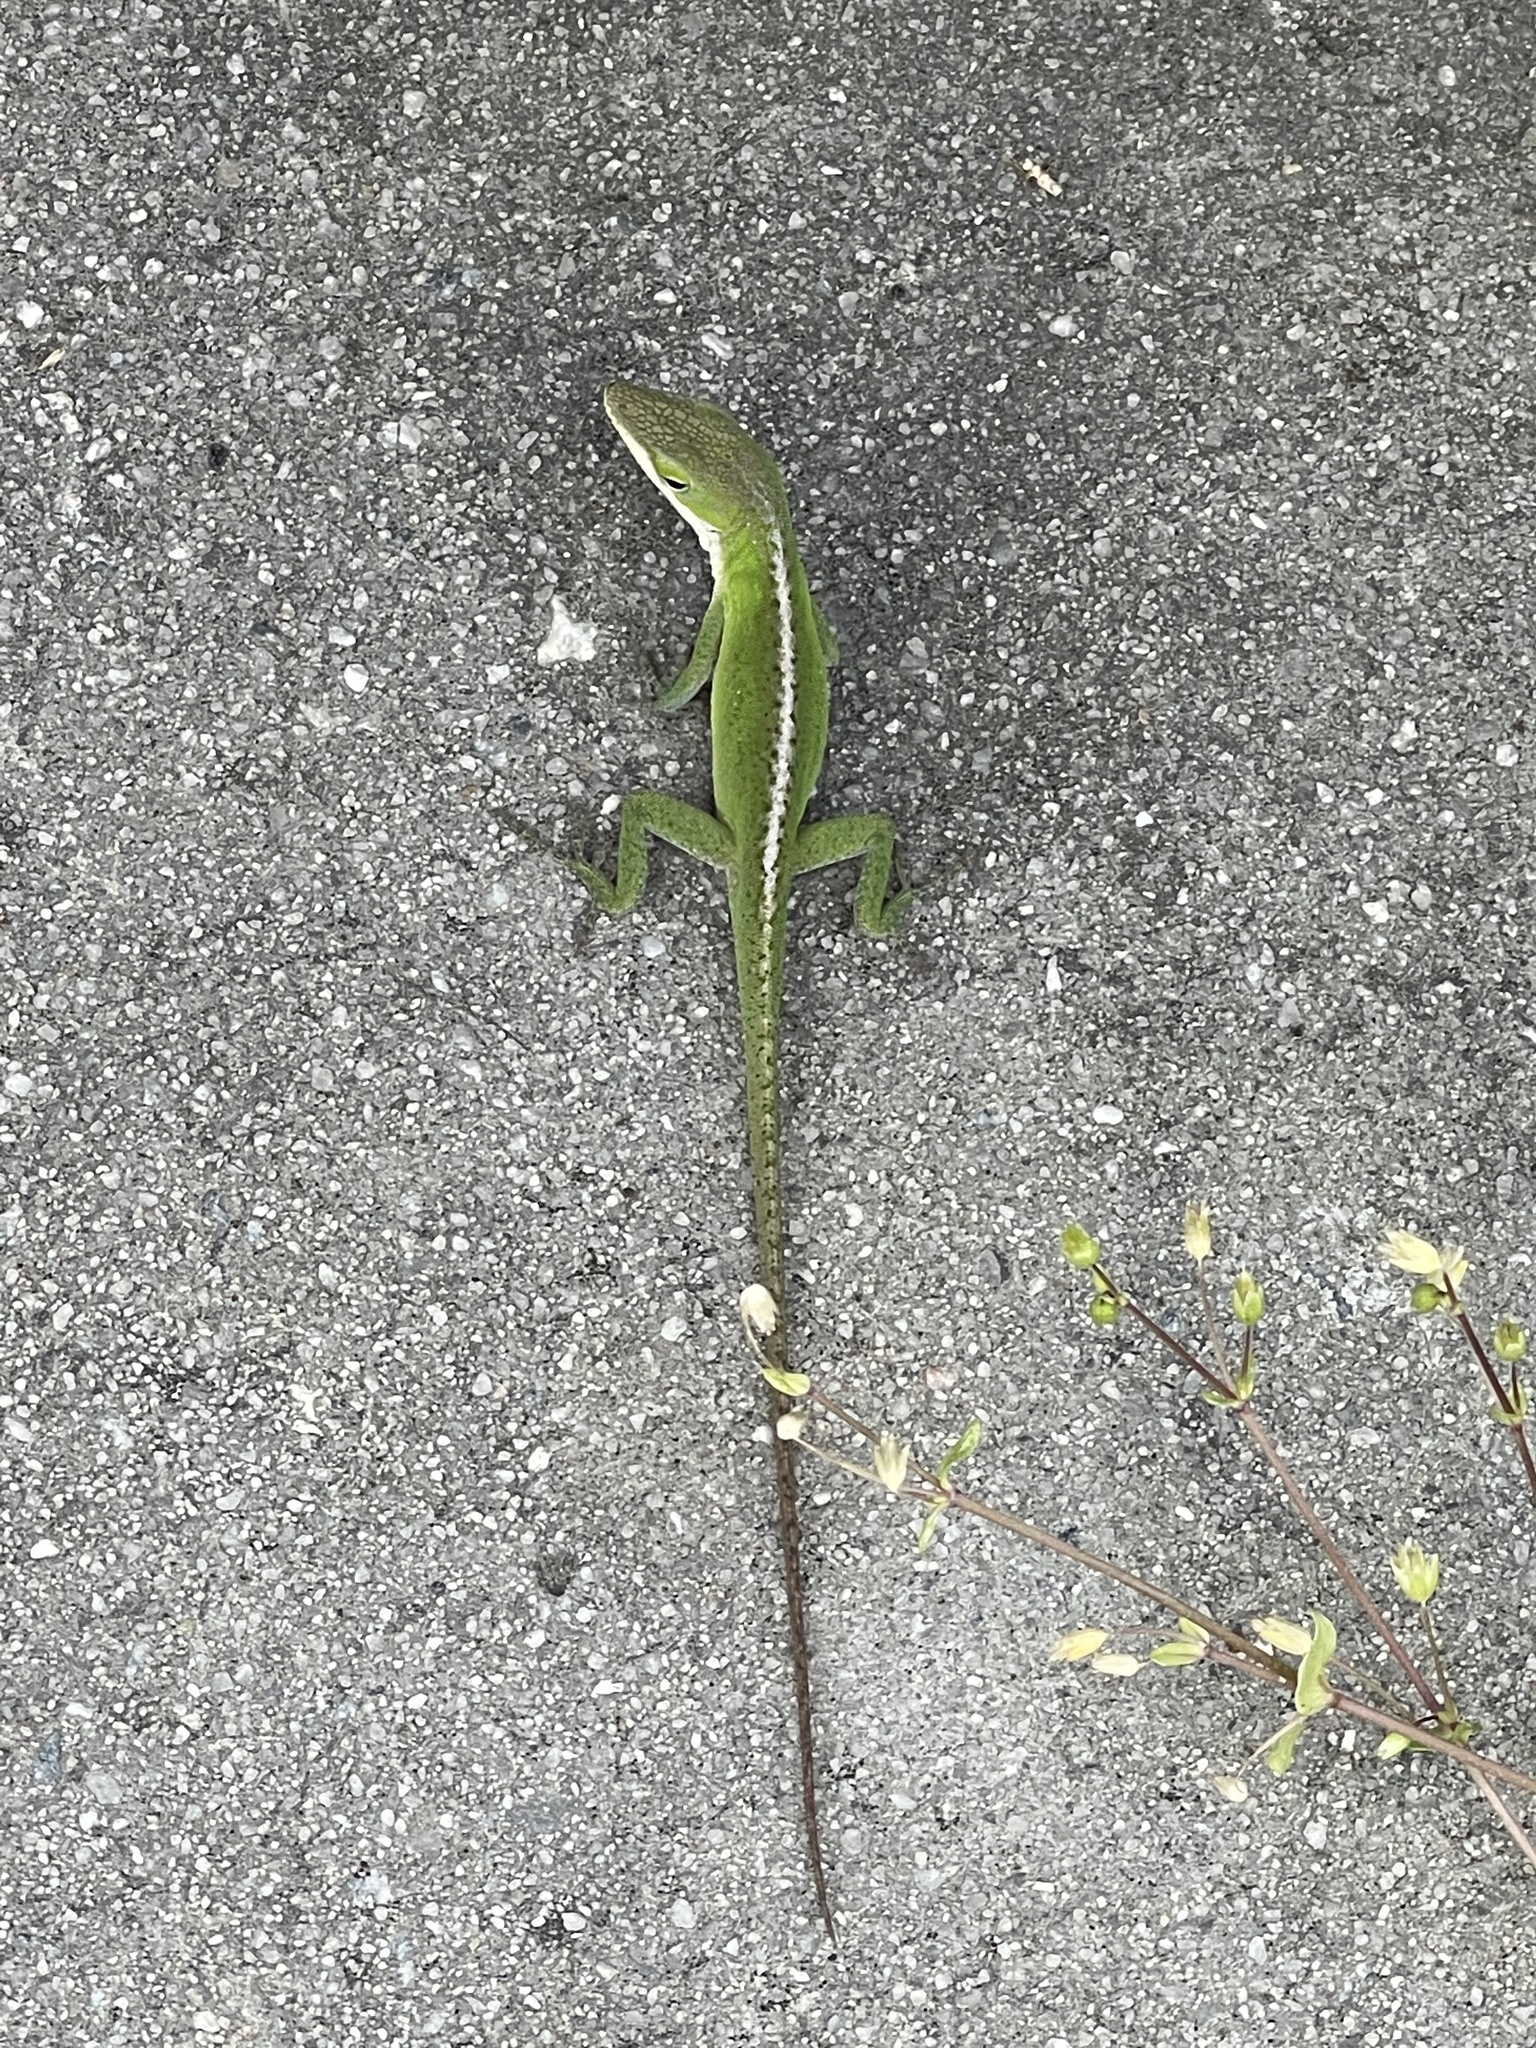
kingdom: Animalia
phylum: Chordata
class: Squamata
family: Dactyloidae
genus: Anolis
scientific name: Anolis carolinensis
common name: Green anole
